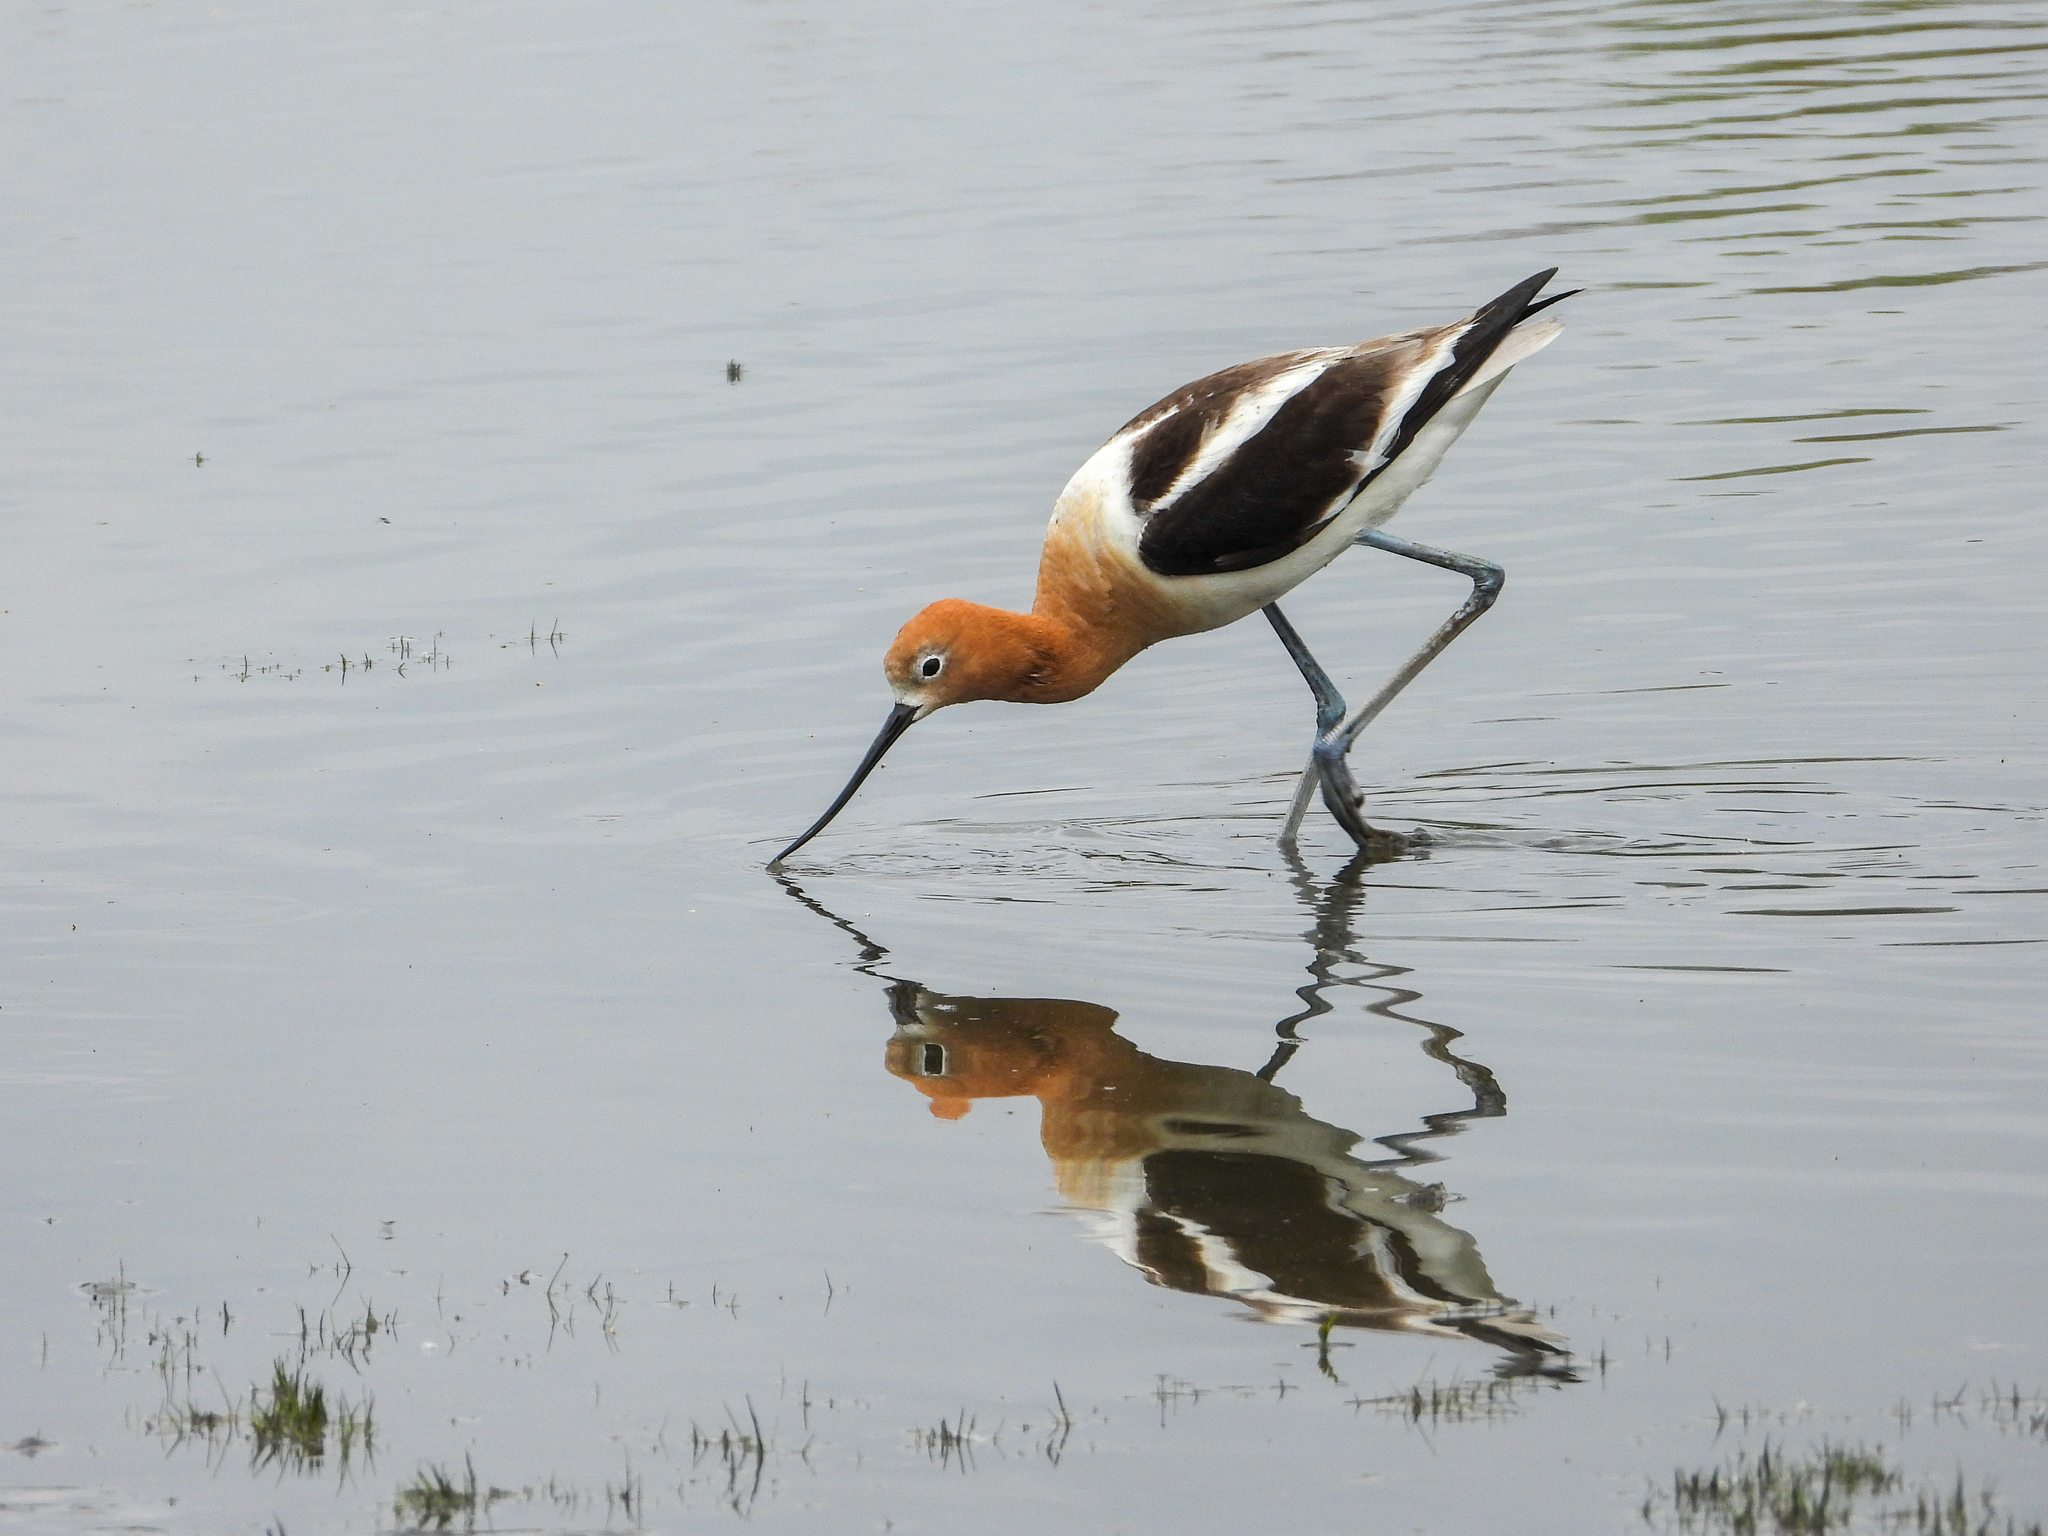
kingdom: Animalia
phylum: Chordata
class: Aves
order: Charadriiformes
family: Recurvirostridae
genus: Recurvirostra
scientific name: Recurvirostra americana
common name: American avocet
